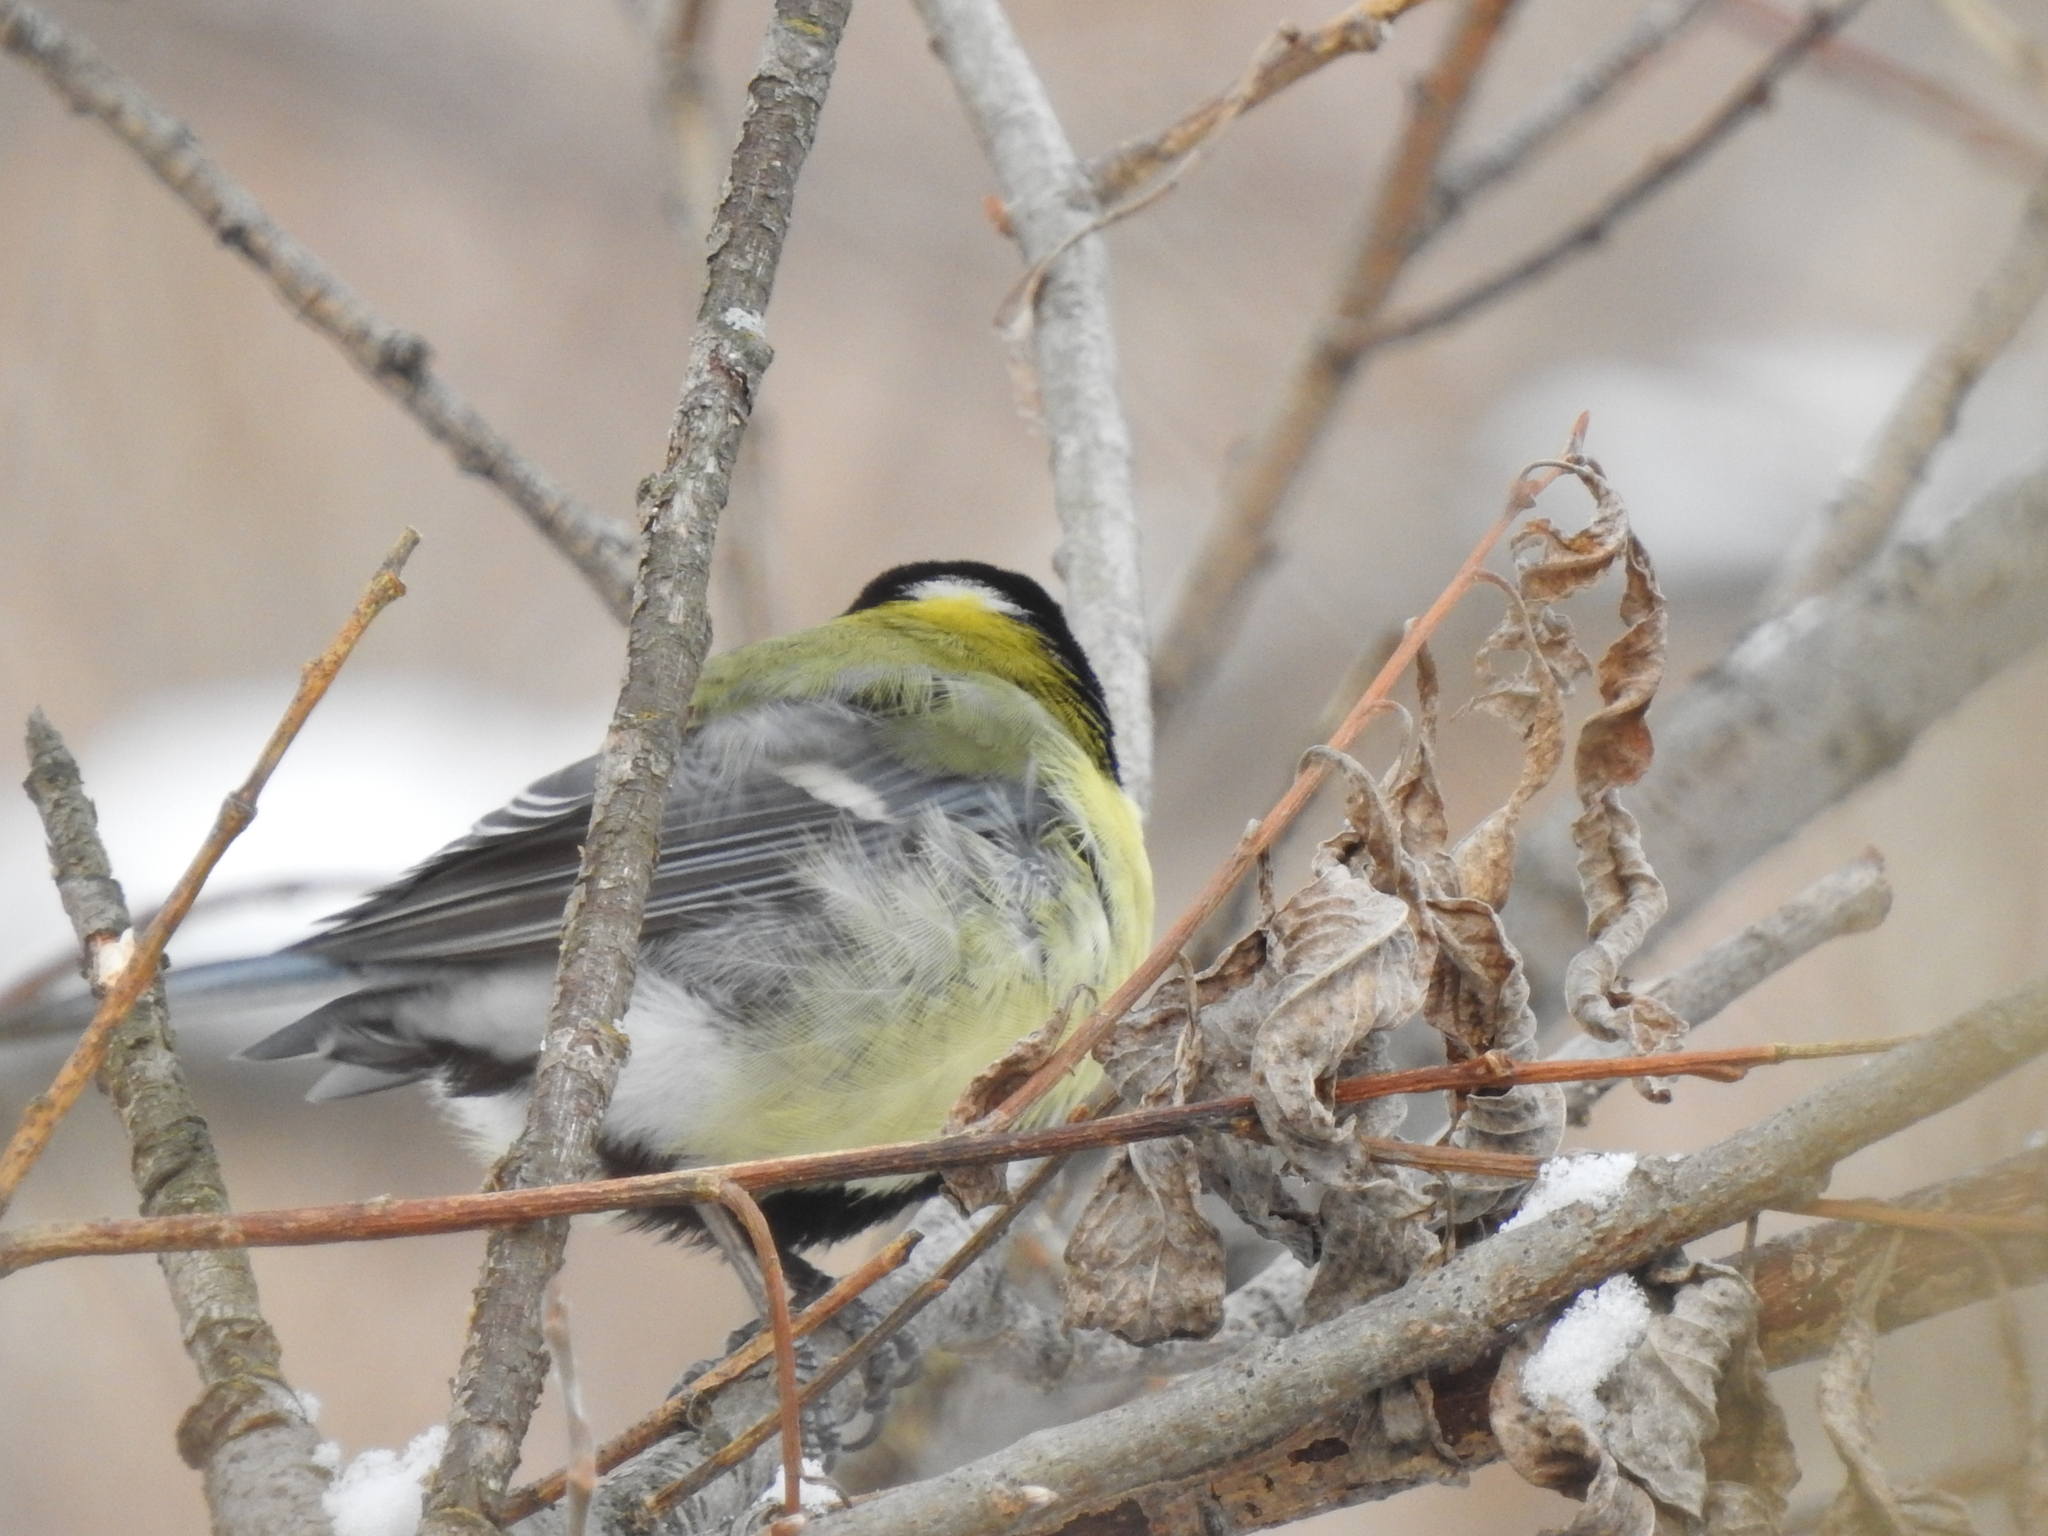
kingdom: Animalia
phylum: Chordata
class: Aves
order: Passeriformes
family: Paridae
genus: Parus
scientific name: Parus major
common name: Great tit
